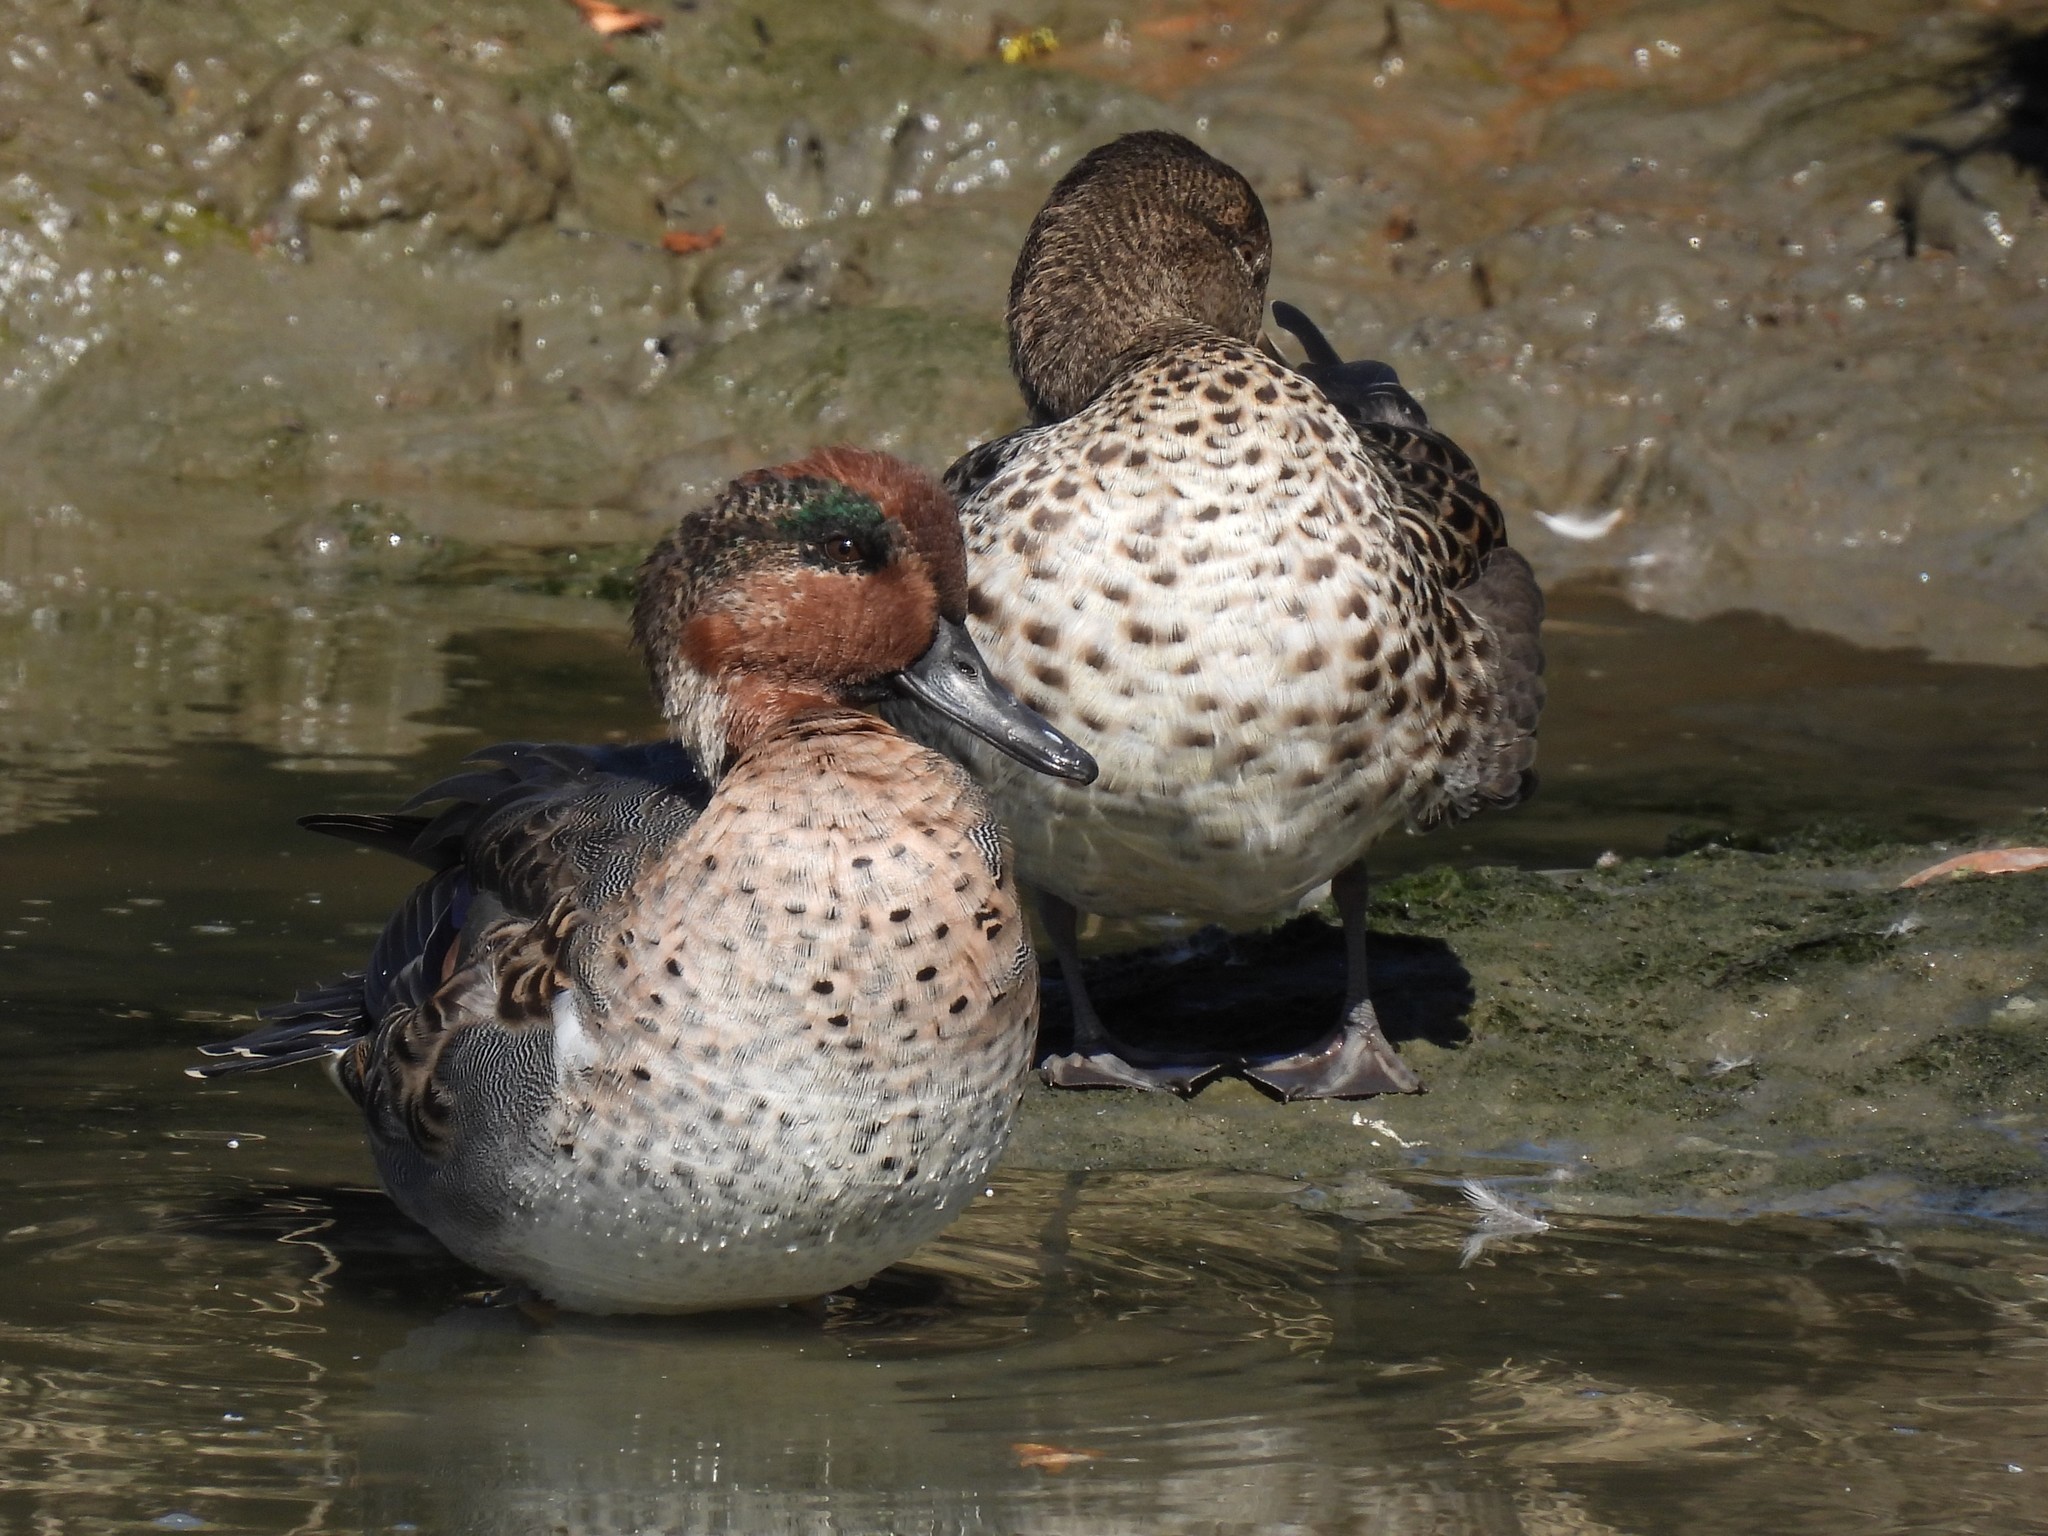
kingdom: Animalia
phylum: Chordata
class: Aves
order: Anseriformes
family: Anatidae
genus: Anas
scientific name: Anas crecca
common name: Eurasian teal
